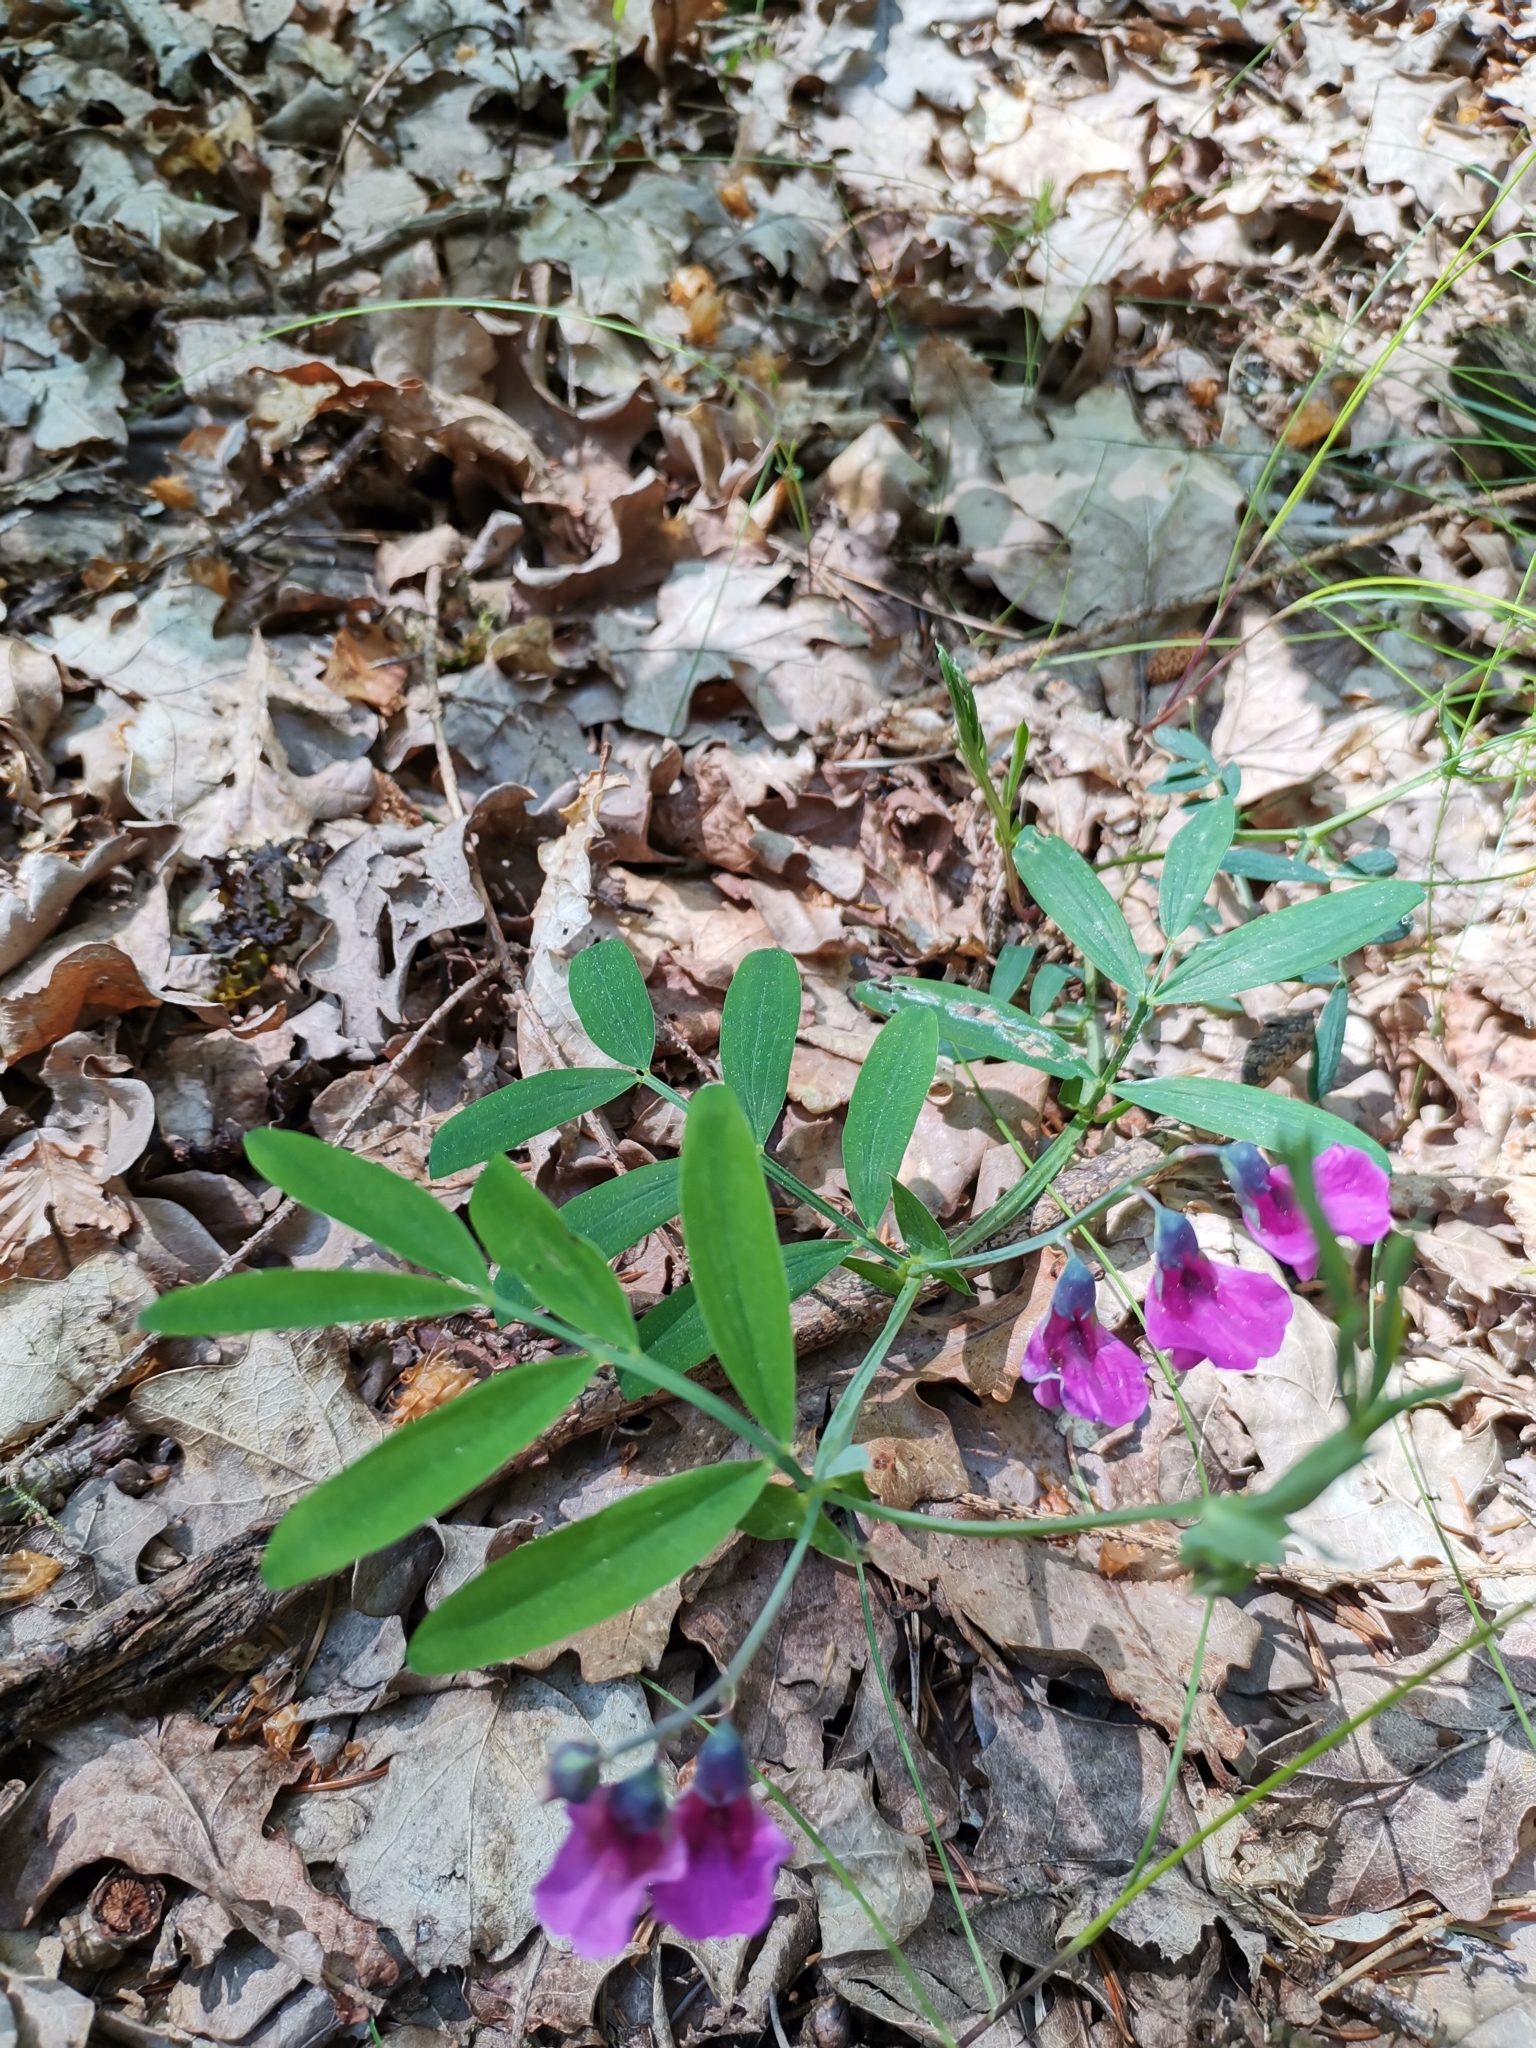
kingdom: Plantae
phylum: Tracheophyta
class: Magnoliopsida
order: Fabales
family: Fabaceae
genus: Lathyrus
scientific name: Lathyrus linifolius
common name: Bitter-vetch
